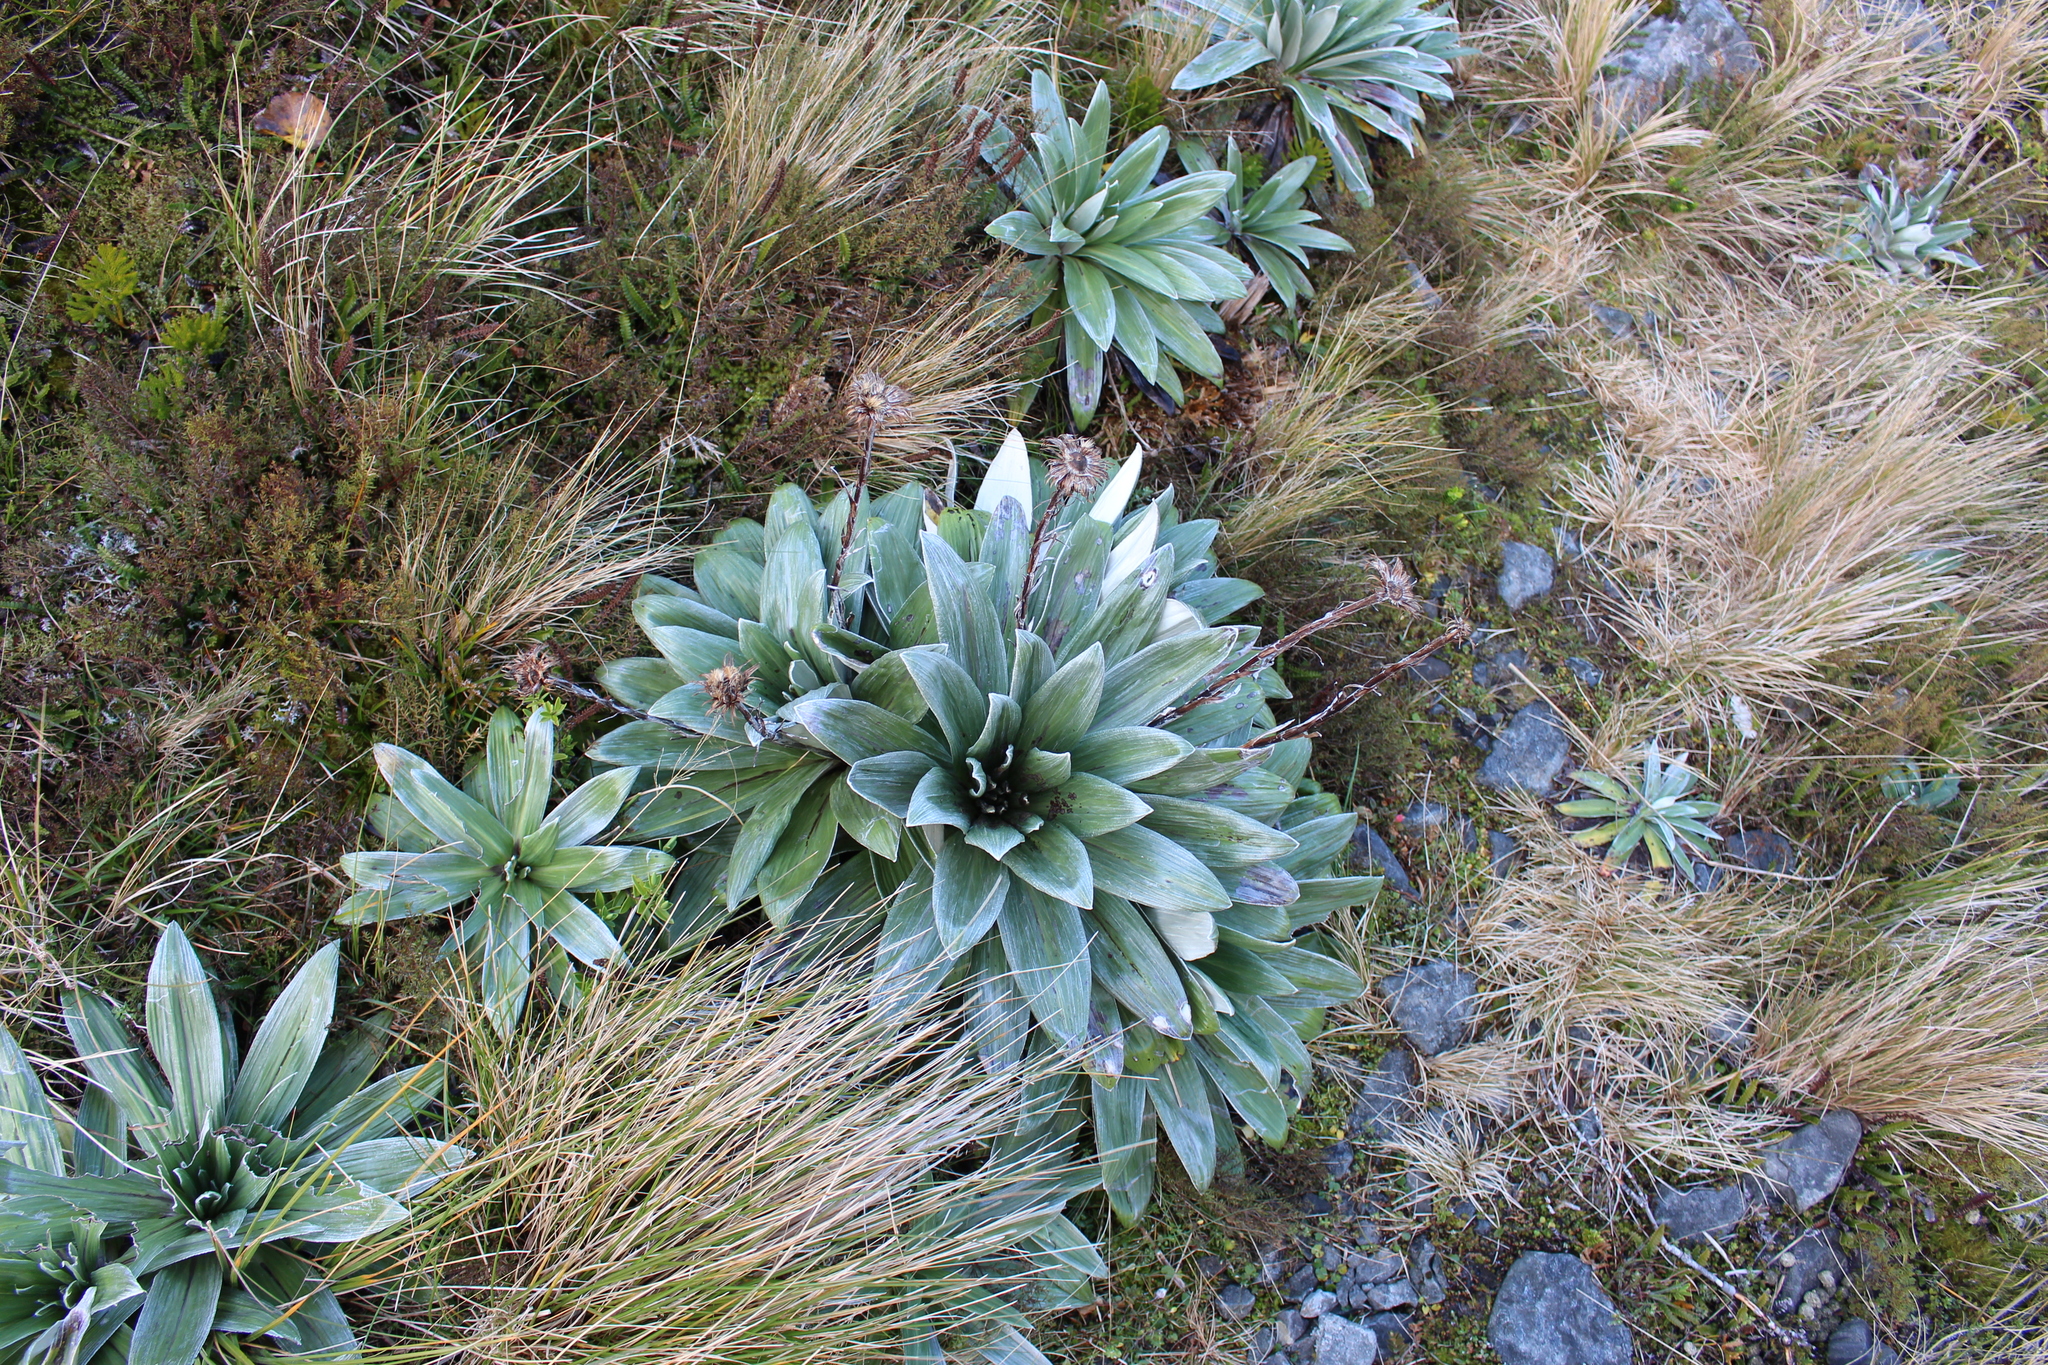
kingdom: Plantae
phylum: Tracheophyta
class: Magnoliopsida
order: Asterales
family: Asteraceae
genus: Celmisia
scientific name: Celmisia semicordata
